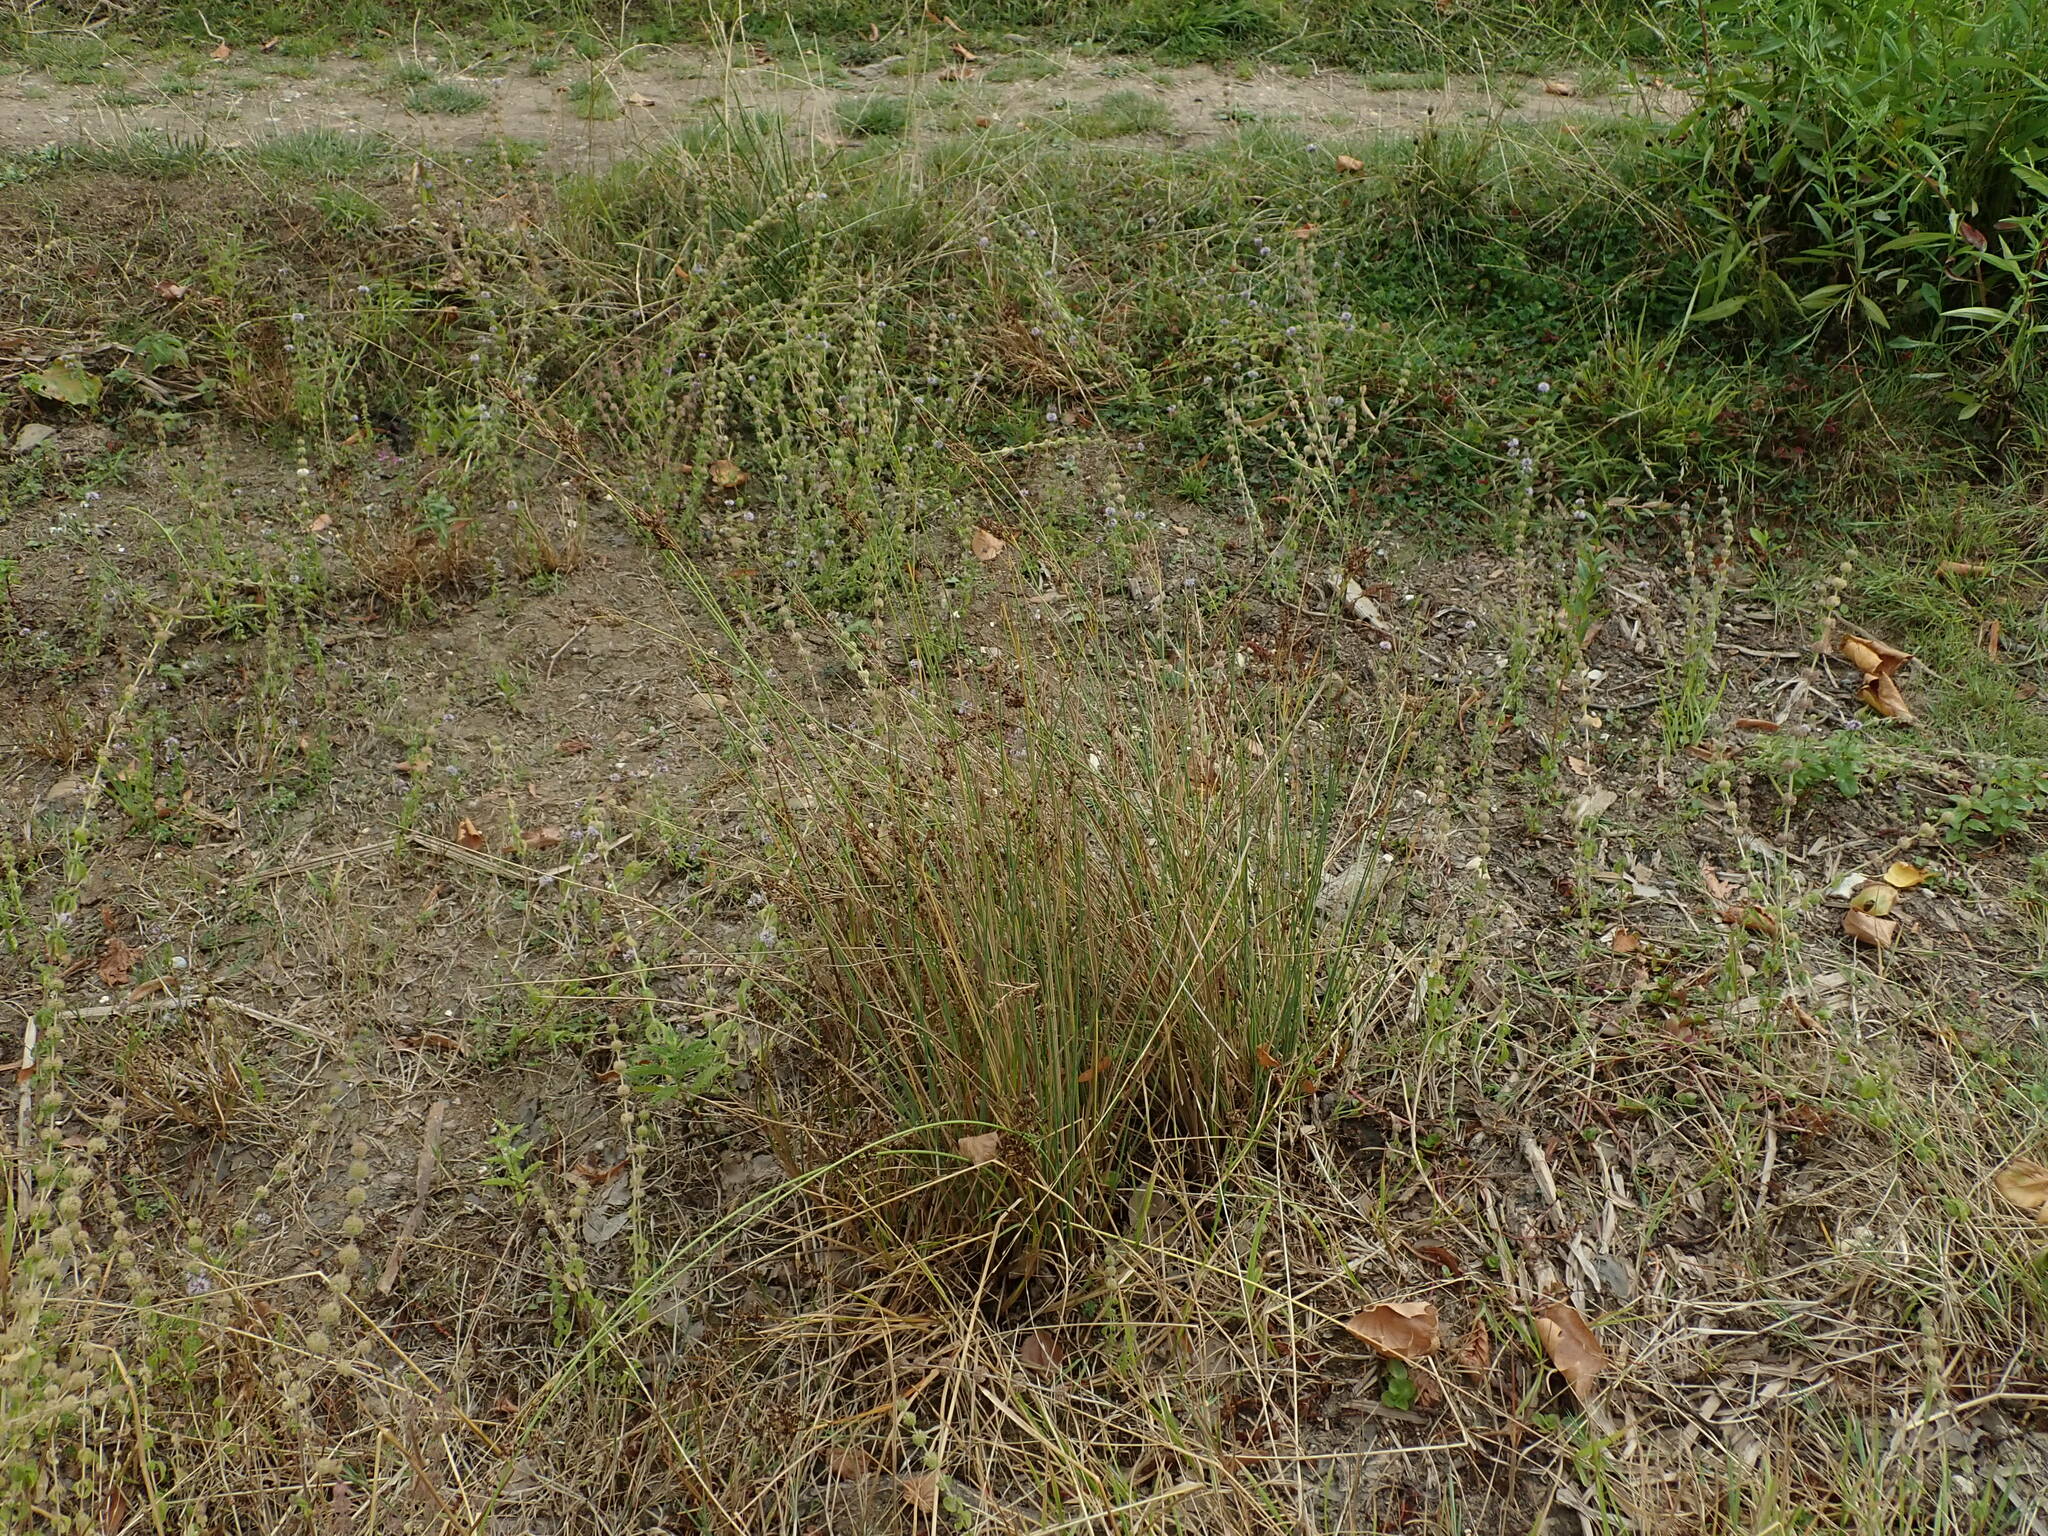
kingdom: Plantae
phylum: Tracheophyta
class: Liliopsida
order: Poales
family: Juncaceae
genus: Juncus
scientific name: Juncus inflexus
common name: Hard rush
